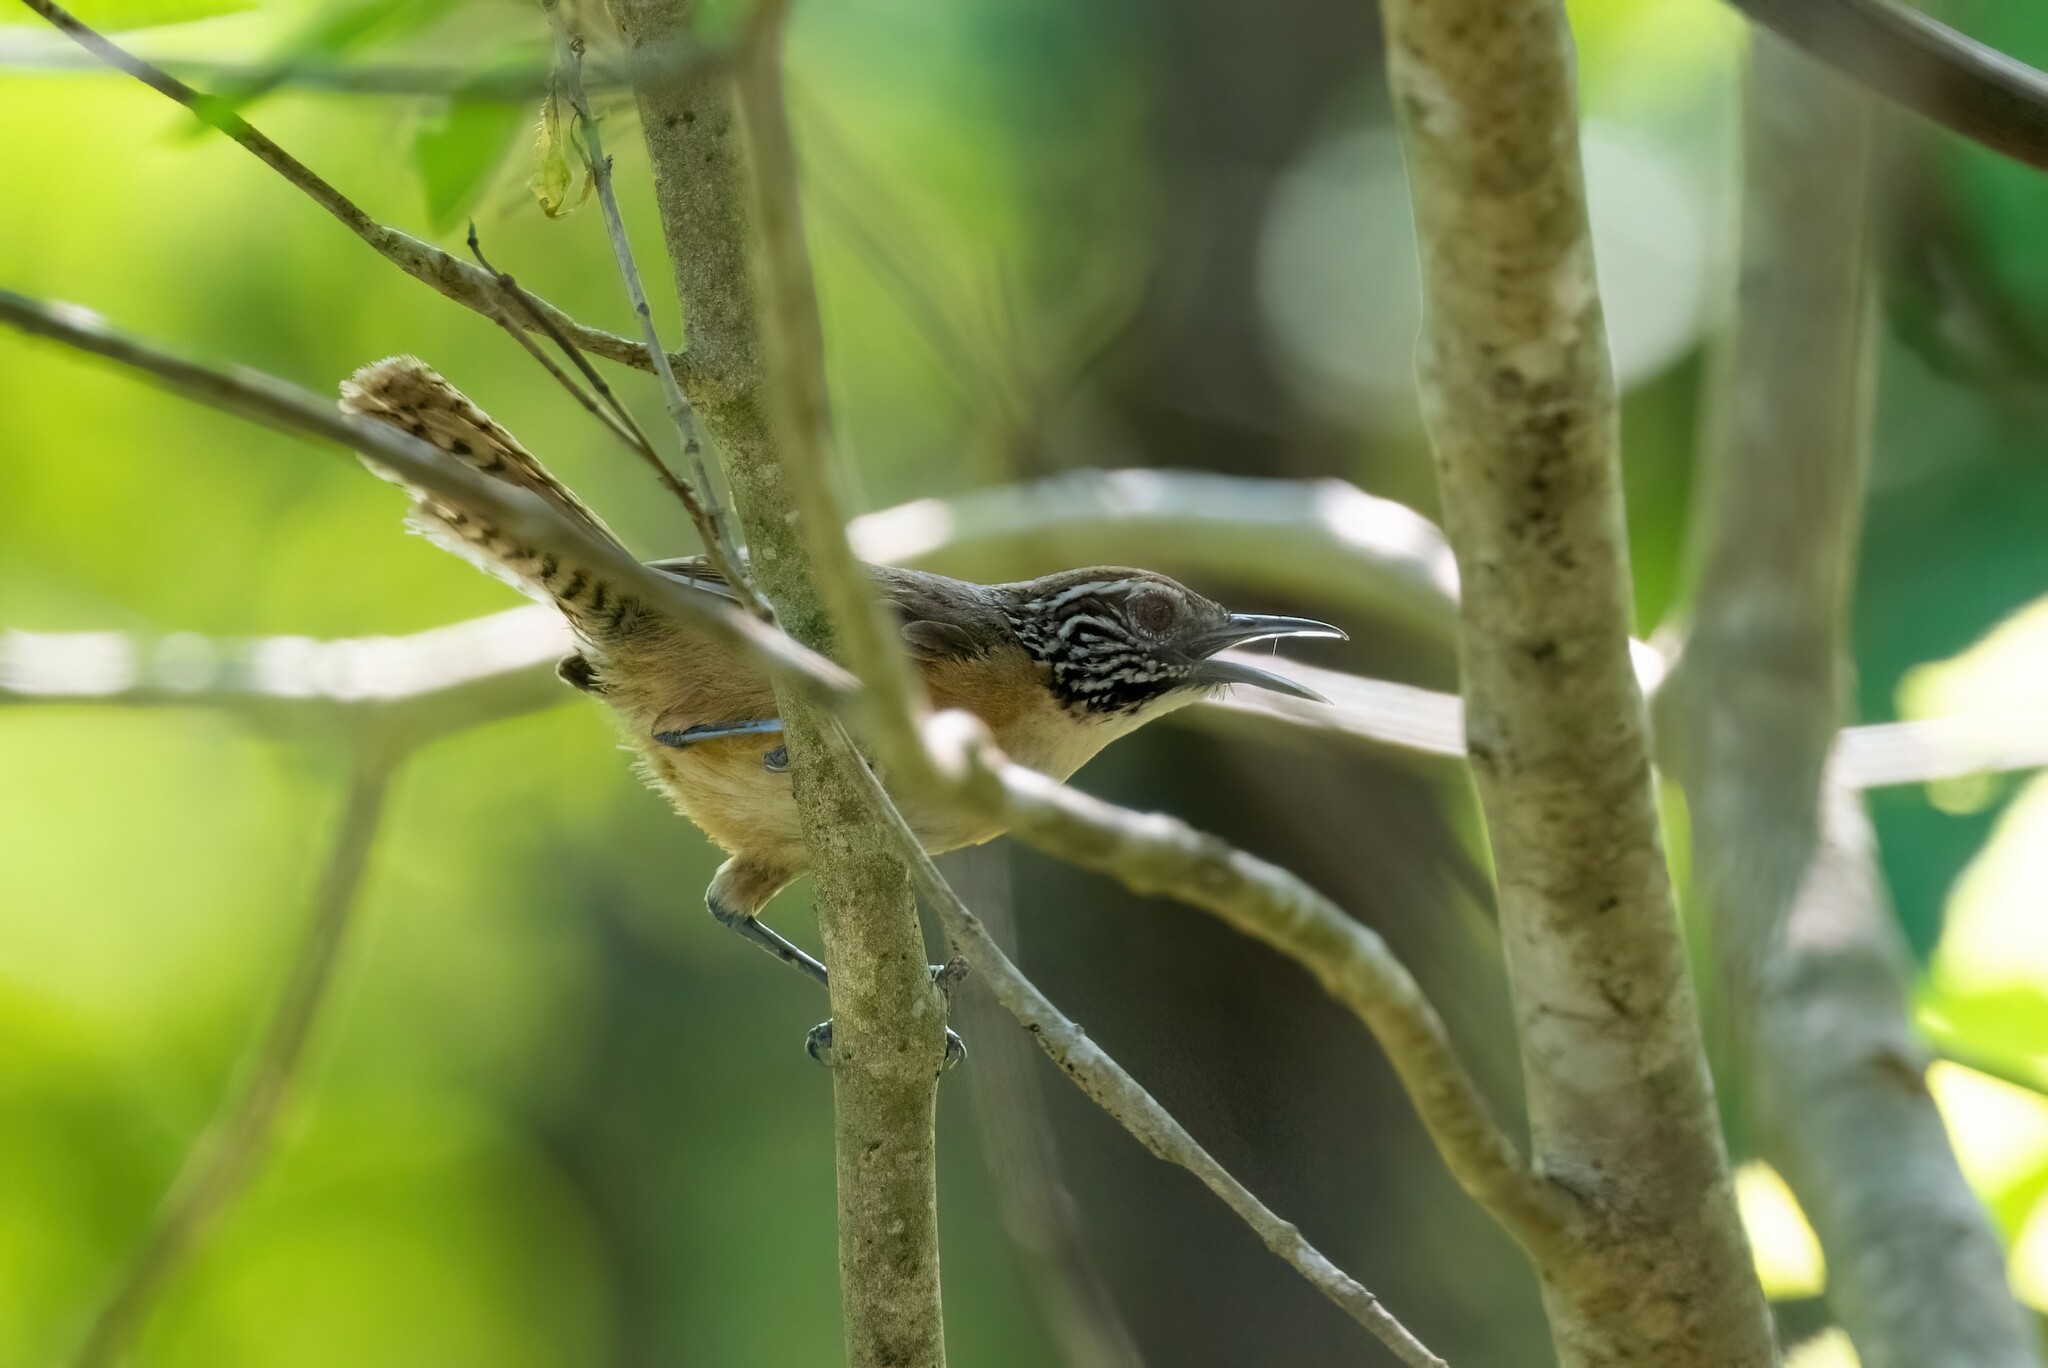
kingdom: Animalia
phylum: Chordata
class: Aves
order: Passeriformes
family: Troglodytidae
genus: Pheugopedius
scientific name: Pheugopedius felix
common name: Happy wren
